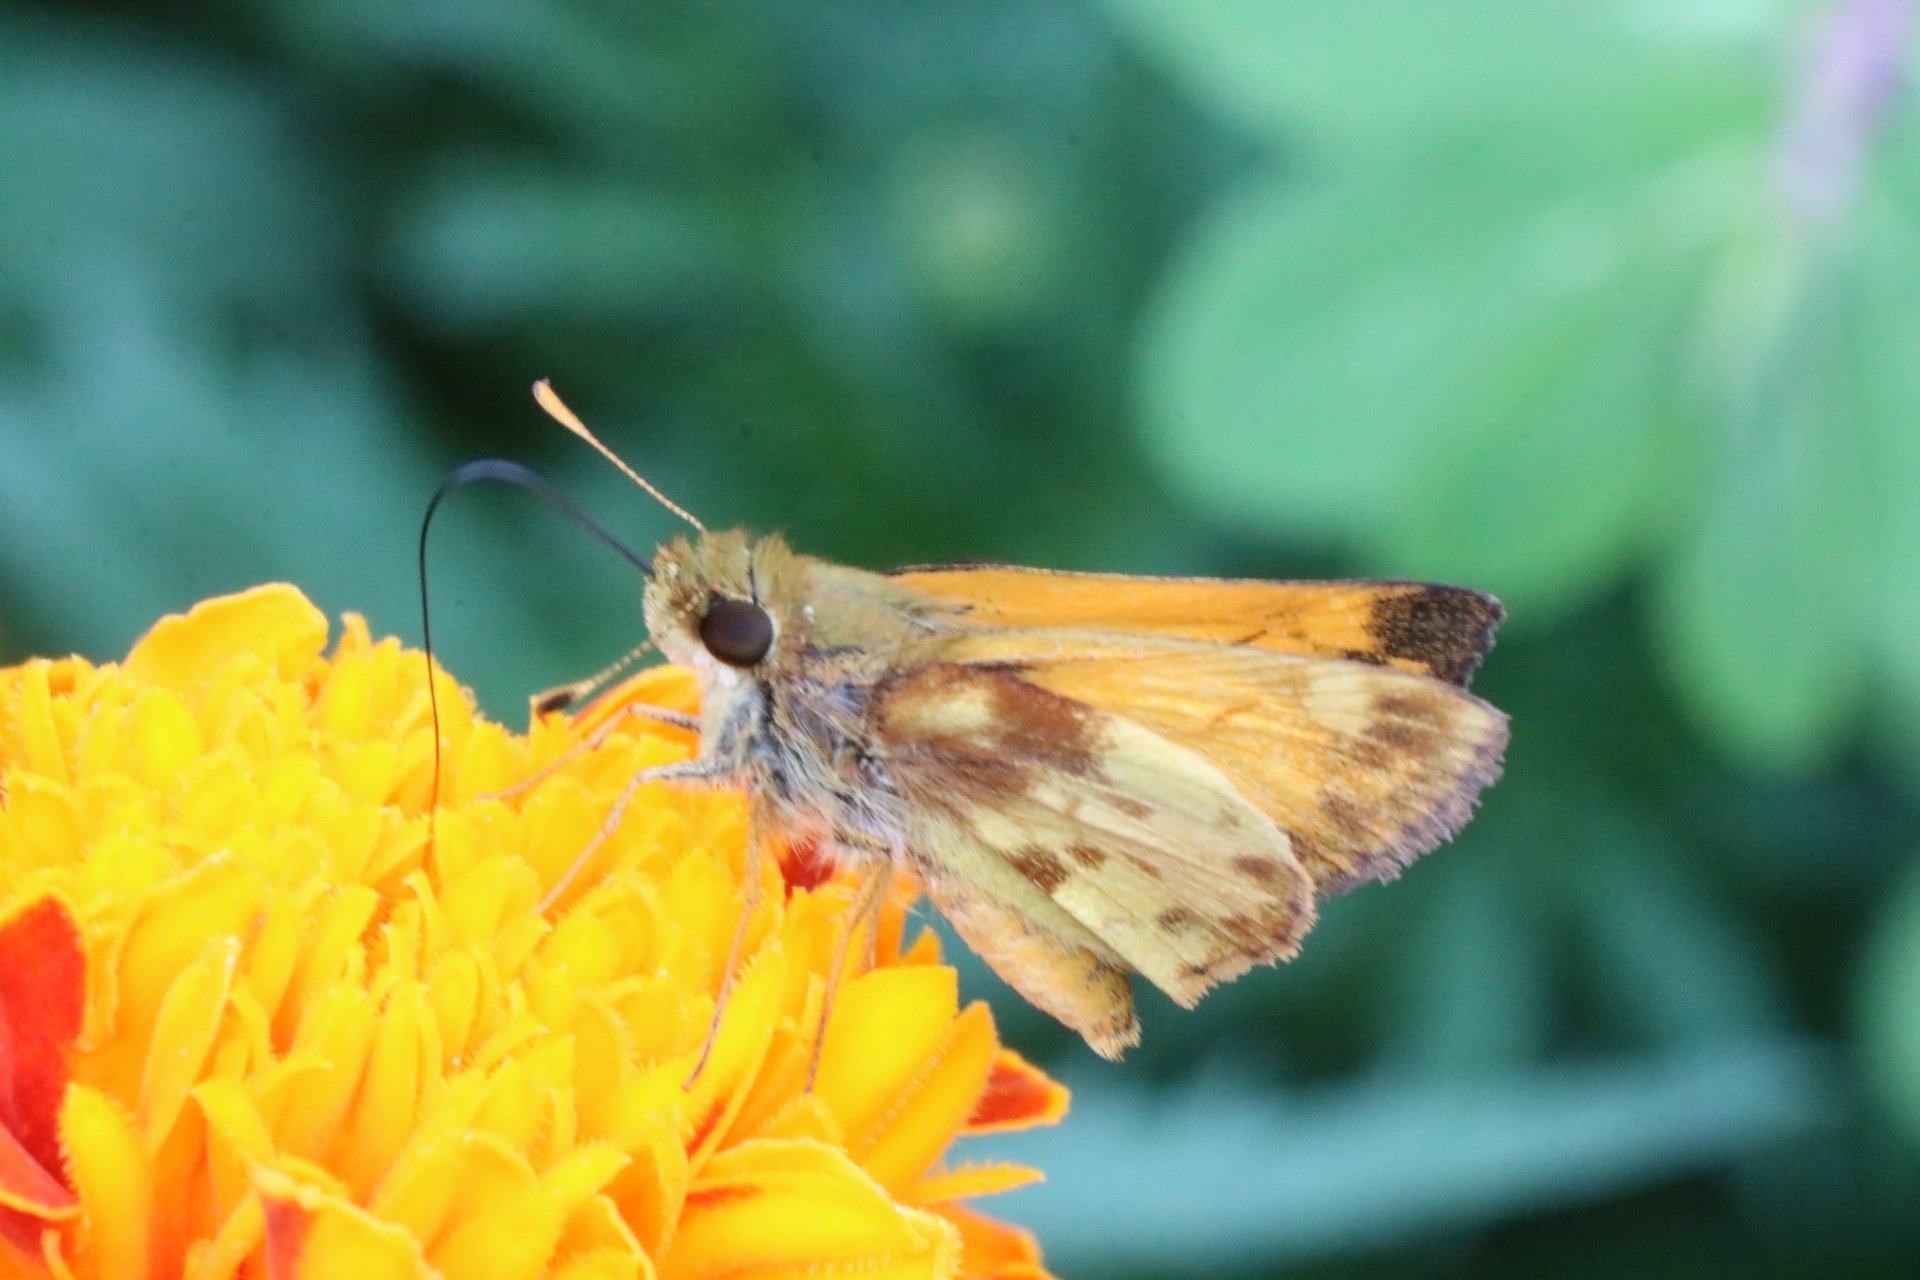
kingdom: Animalia
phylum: Arthropoda
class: Insecta
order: Lepidoptera
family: Hesperiidae
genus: Lon
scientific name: Lon zabulon
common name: Zabulon skipper
